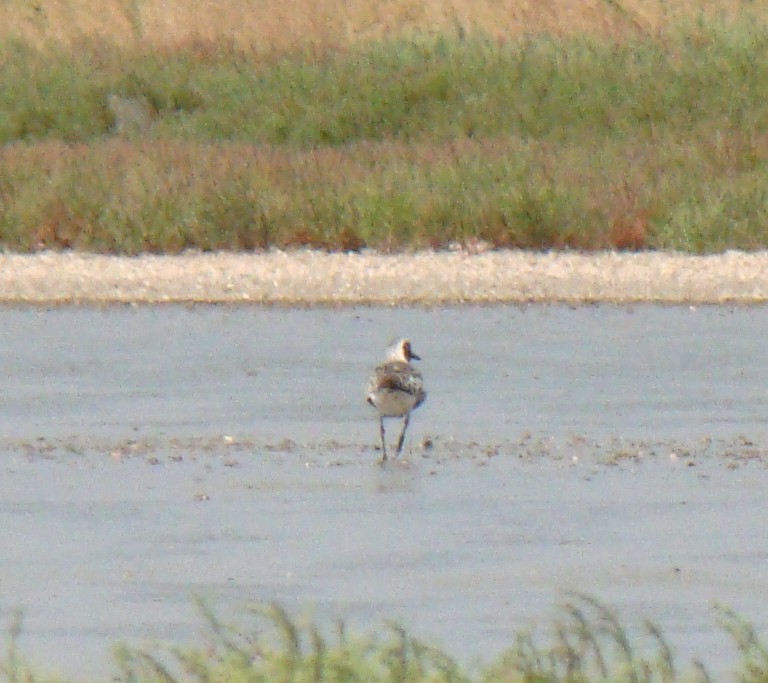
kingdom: Animalia
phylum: Chordata
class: Aves
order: Charadriiformes
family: Charadriidae
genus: Pluvialis
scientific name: Pluvialis squatarola
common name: Grey plover
